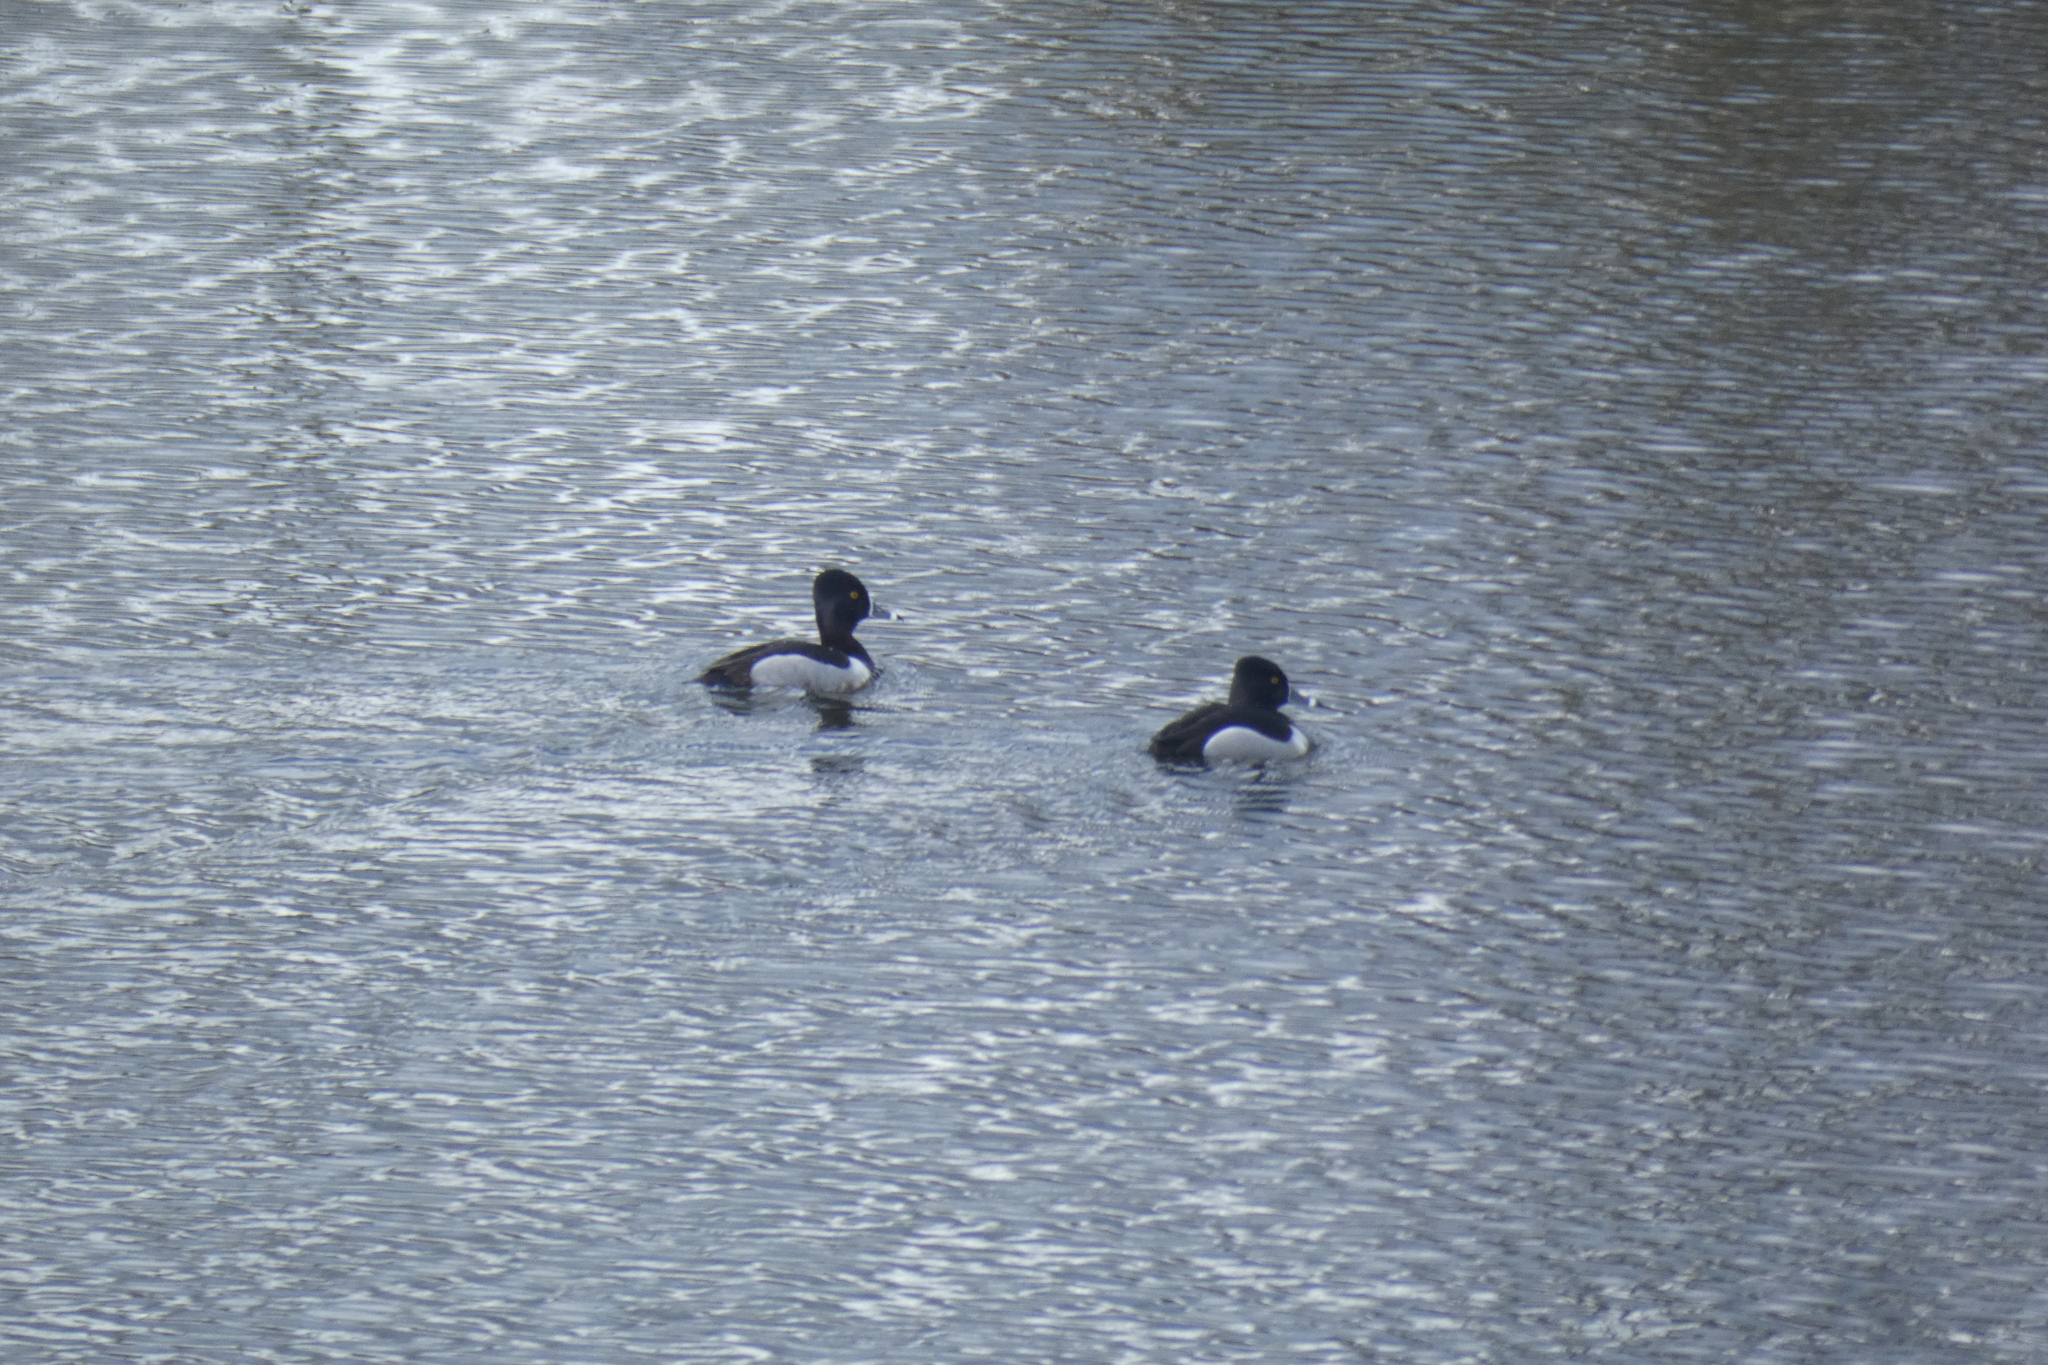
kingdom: Animalia
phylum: Chordata
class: Aves
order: Anseriformes
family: Anatidae
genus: Aythya
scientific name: Aythya collaris
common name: Ring-necked duck
